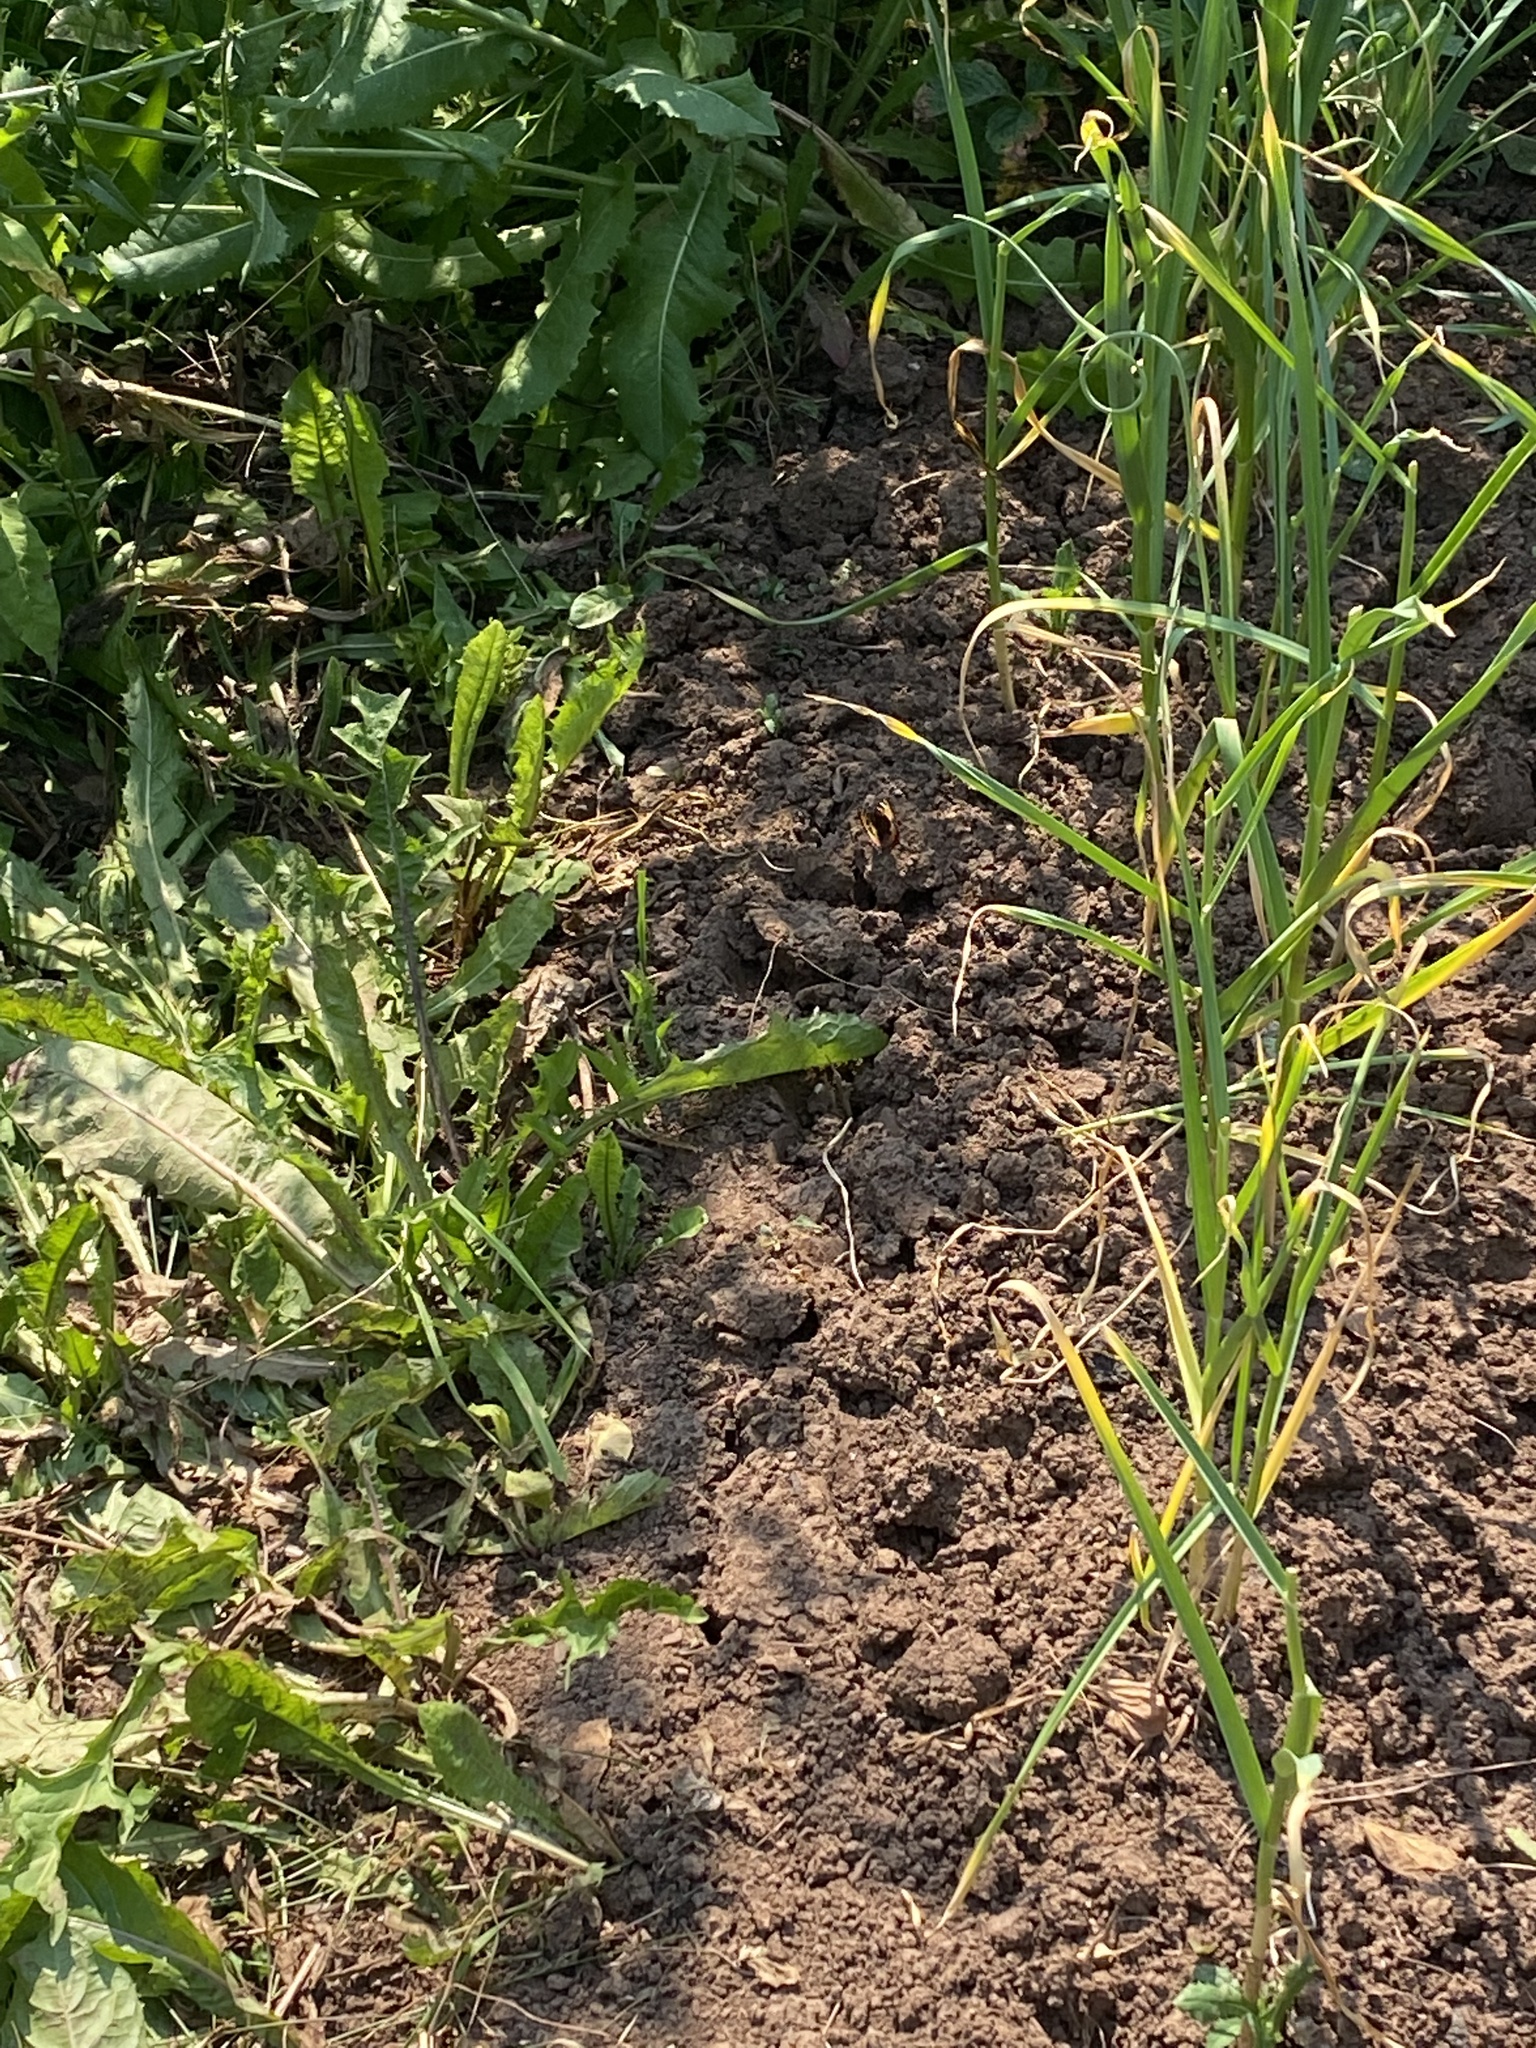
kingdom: Animalia
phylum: Arthropoda
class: Insecta
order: Lepidoptera
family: Nymphalidae
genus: Aglais
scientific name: Aglais urticae
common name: Small tortoiseshell
